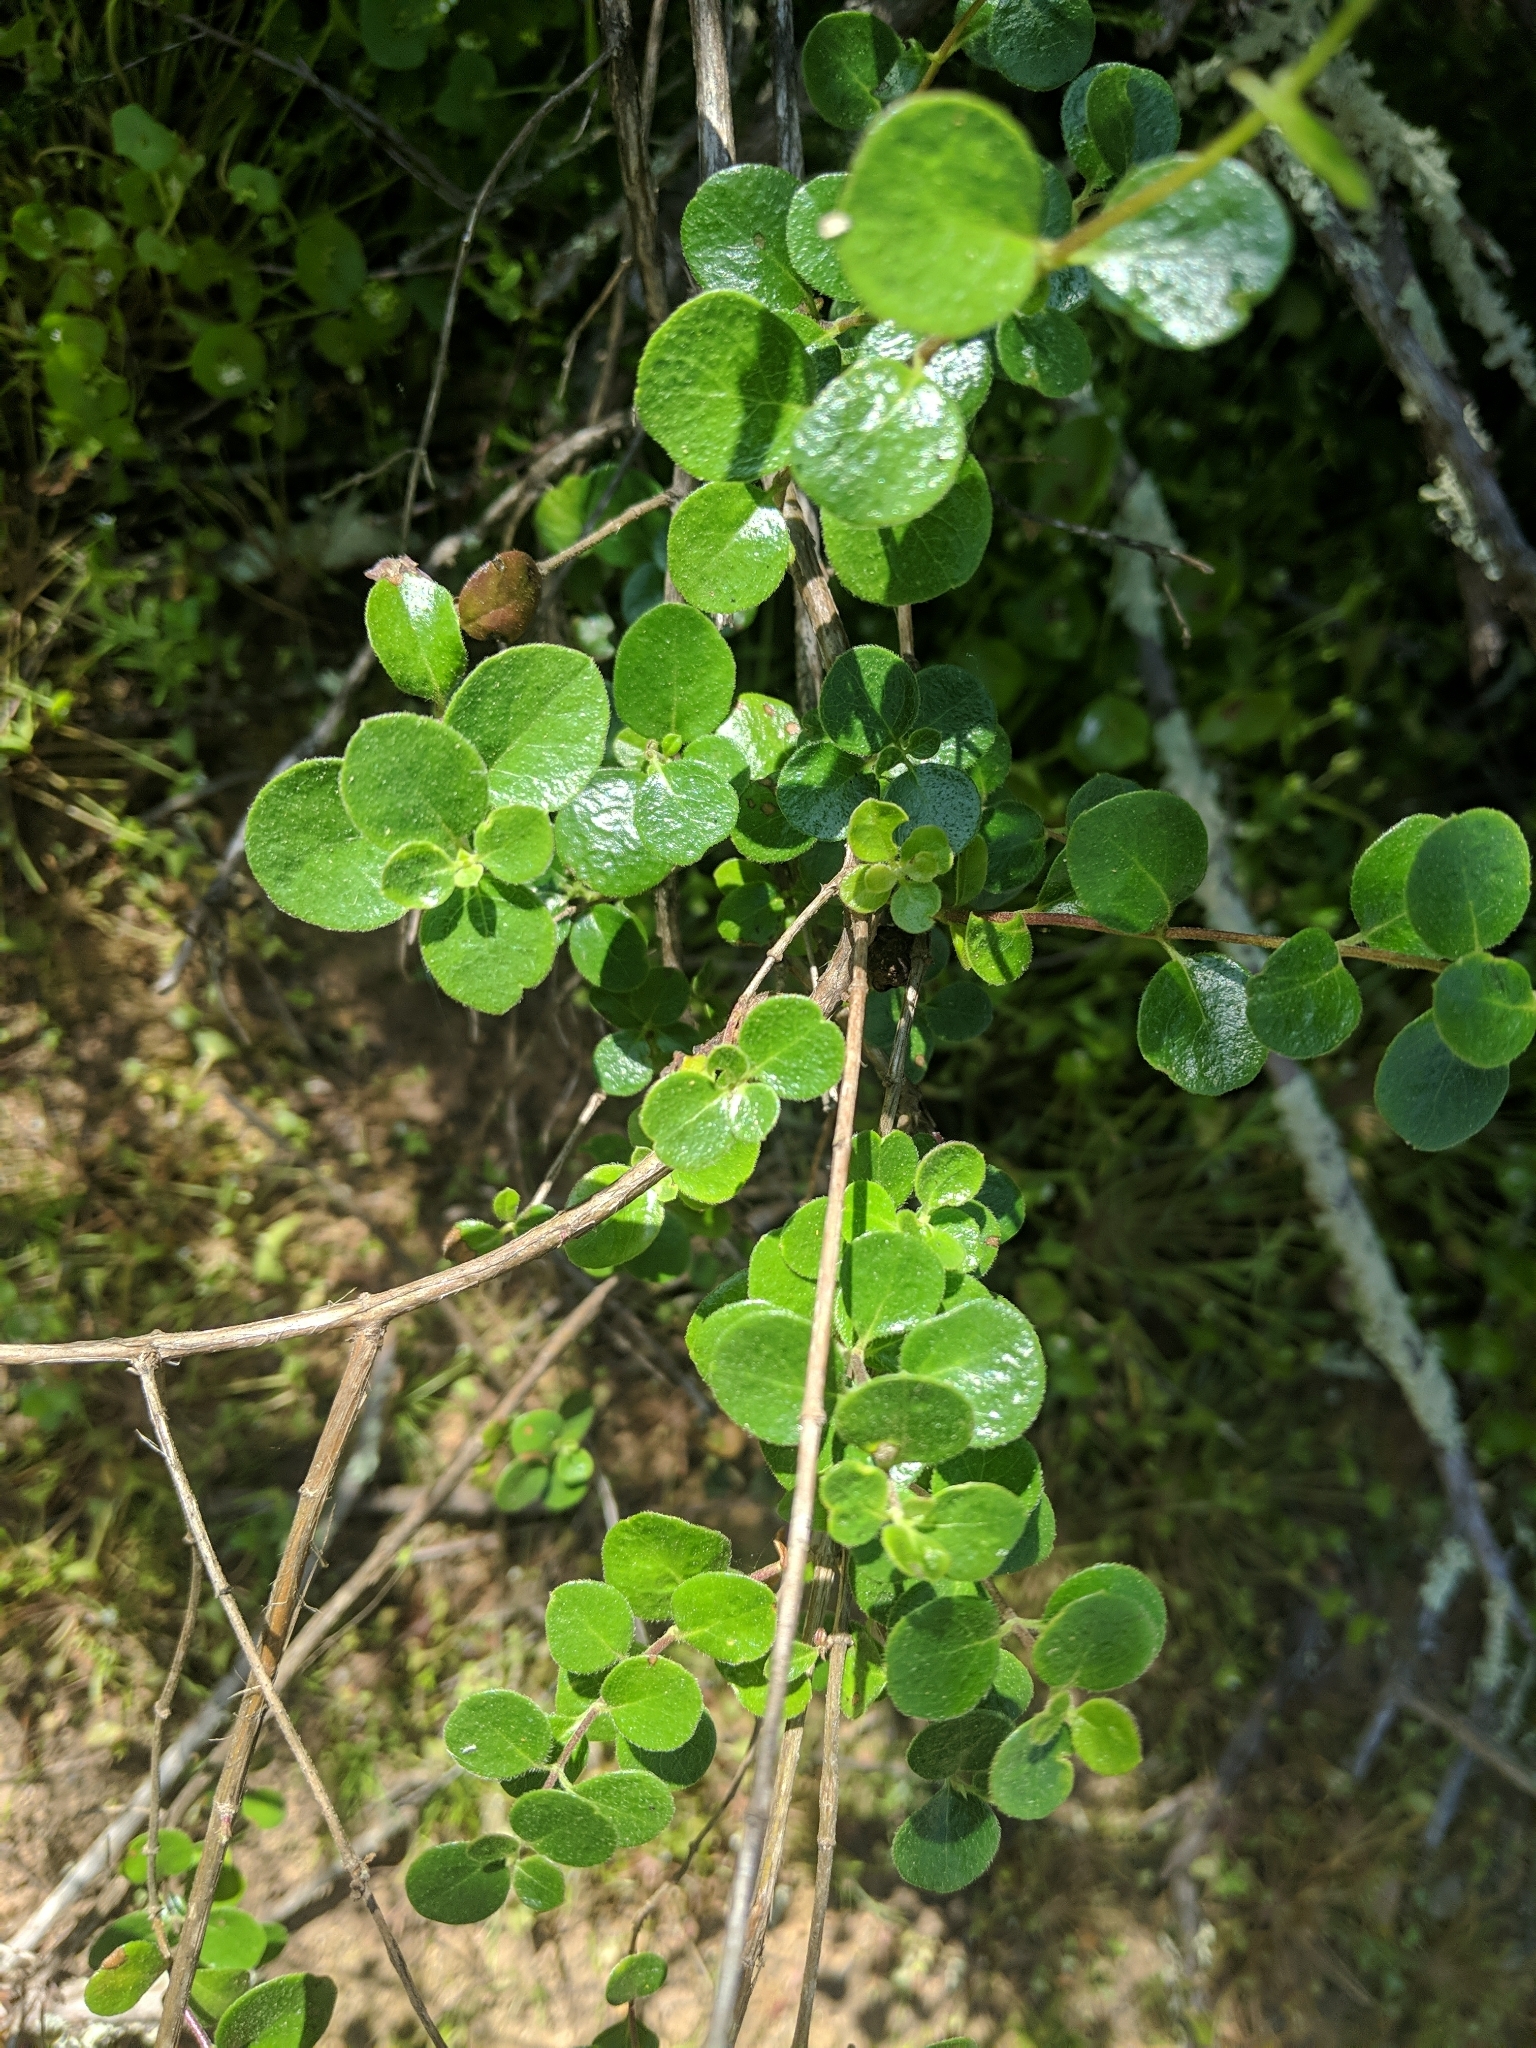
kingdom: Plantae
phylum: Tracheophyta
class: Magnoliopsida
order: Dipsacales
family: Caprifoliaceae
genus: Lonicera
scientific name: Lonicera subspicata
